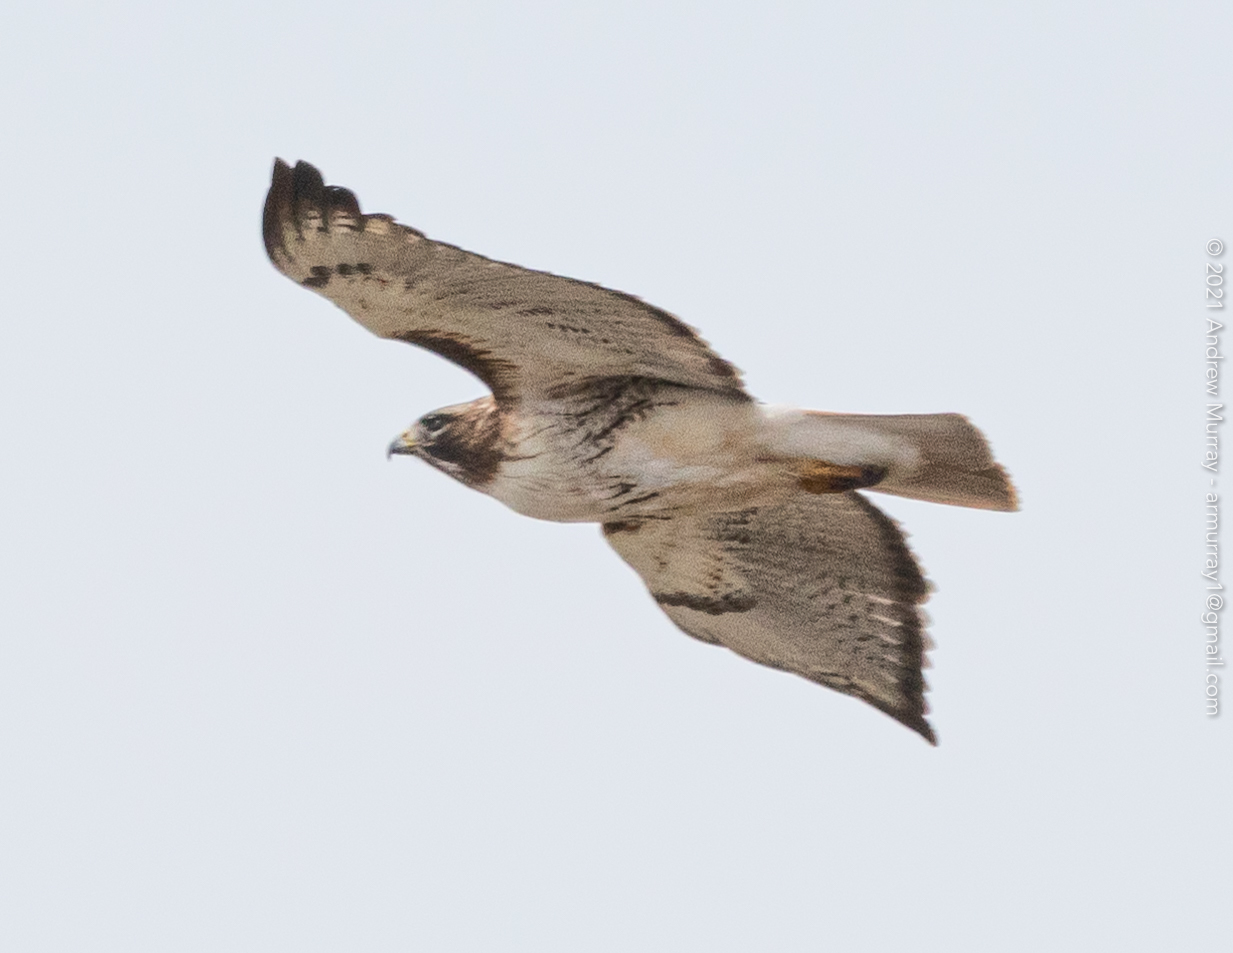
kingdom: Animalia
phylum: Chordata
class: Aves
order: Accipitriformes
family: Accipitridae
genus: Buteo
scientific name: Buteo jamaicensis
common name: Red-tailed hawk
